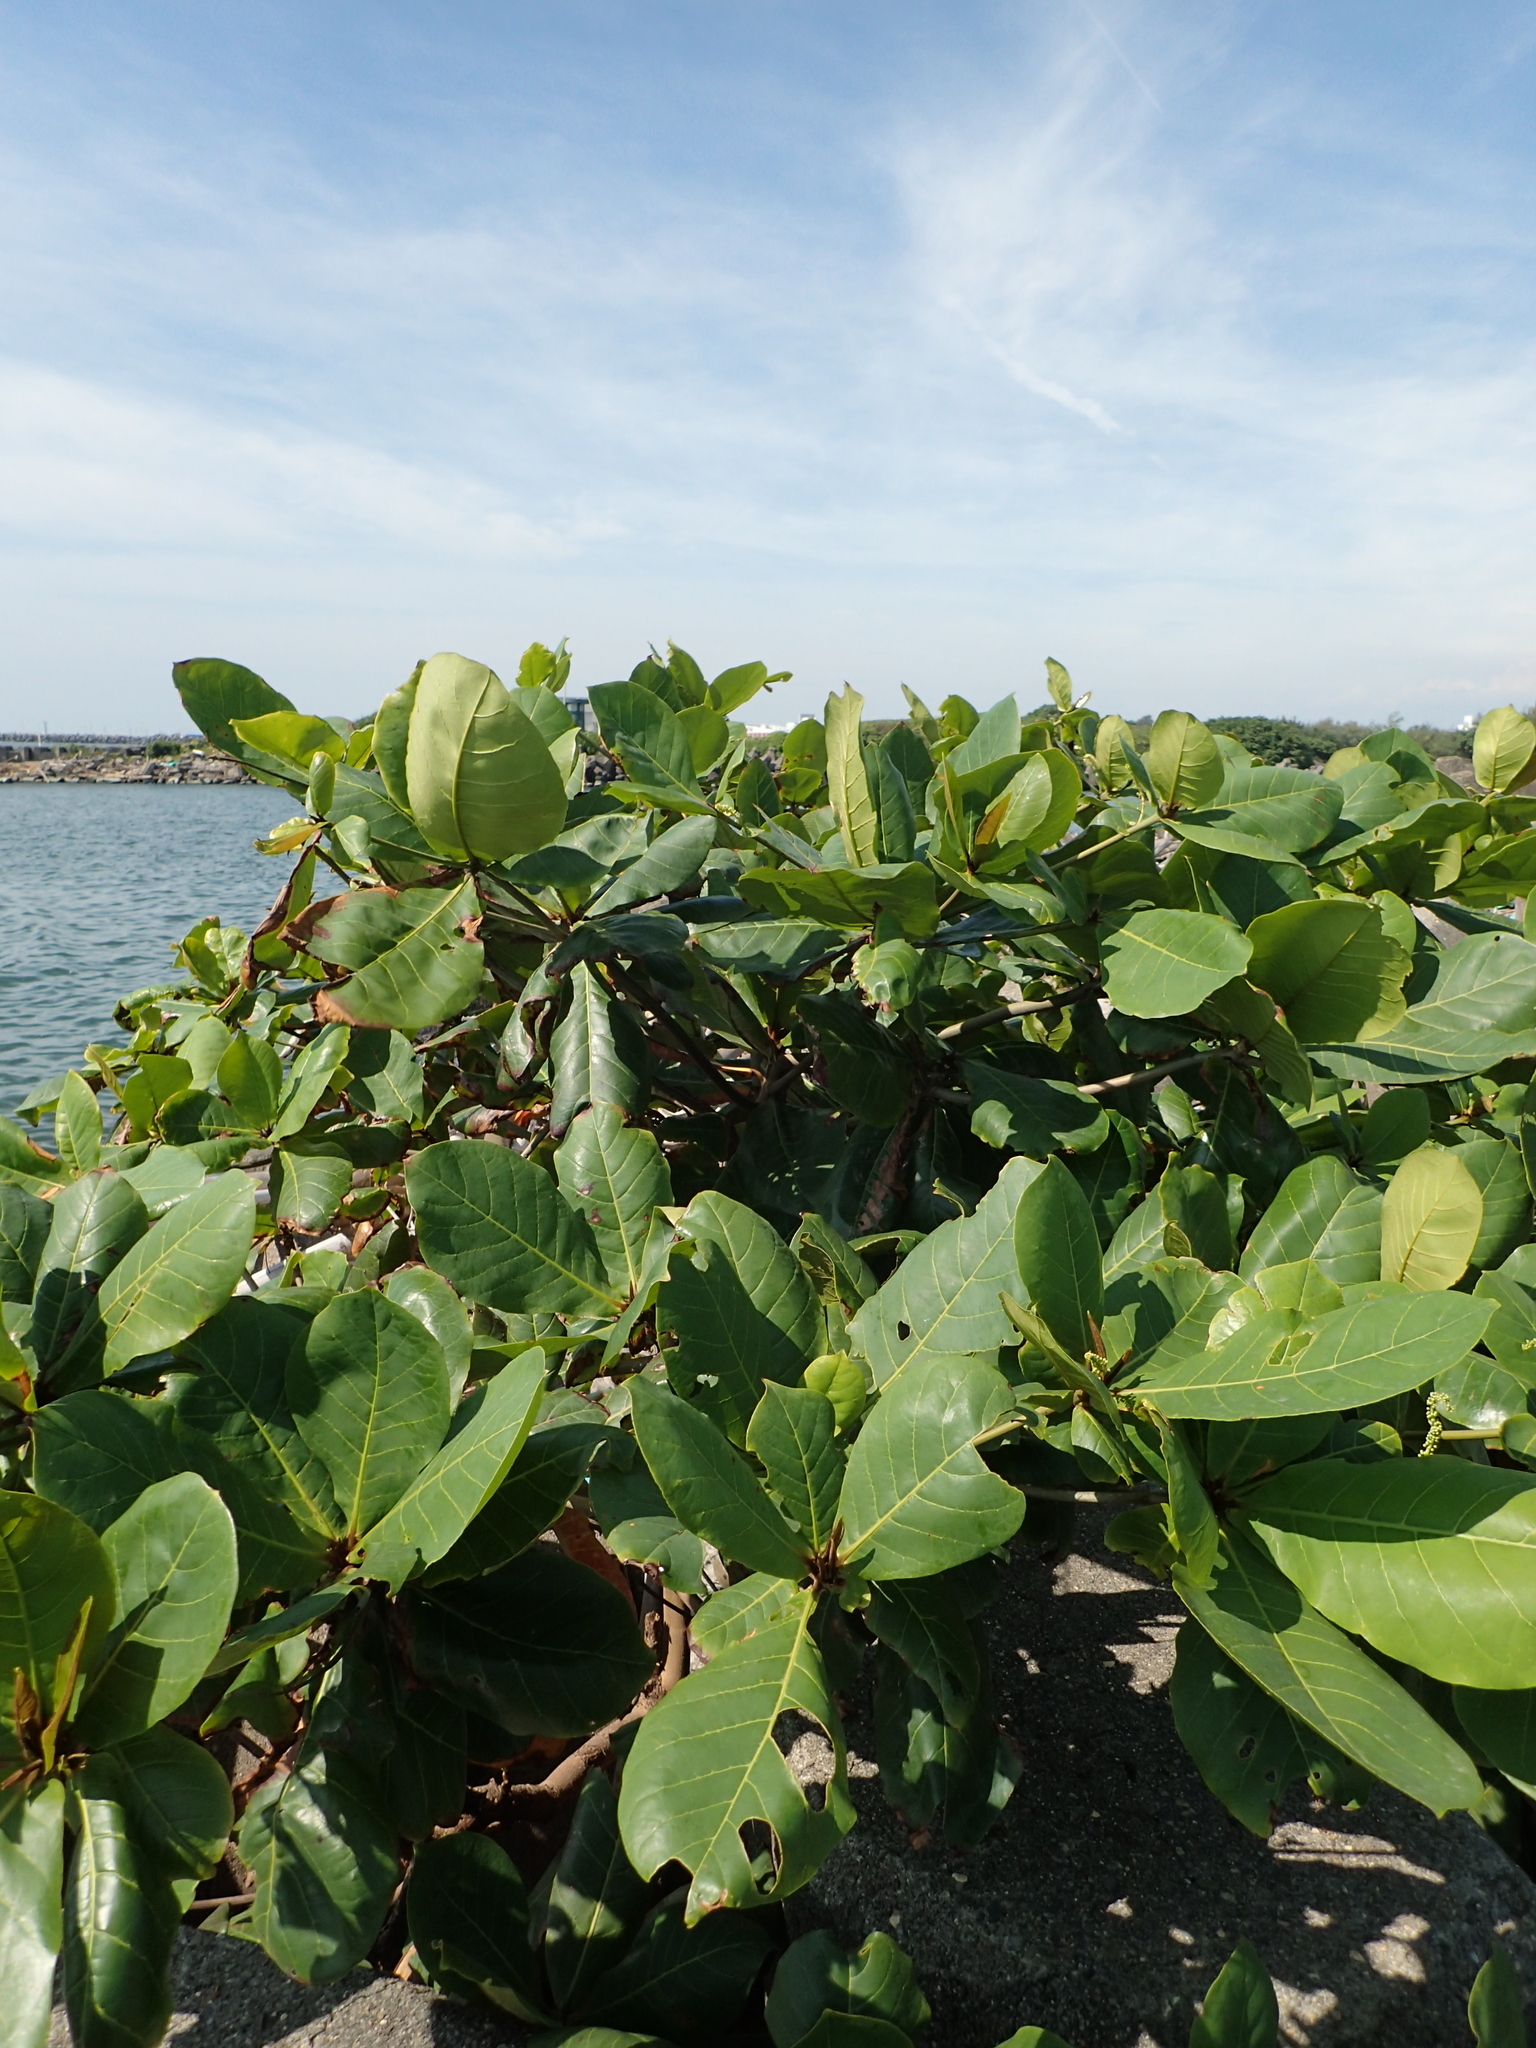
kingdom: Plantae
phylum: Tracheophyta
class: Magnoliopsida
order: Myrtales
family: Combretaceae
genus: Terminalia
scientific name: Terminalia catappa
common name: Tropical almond
